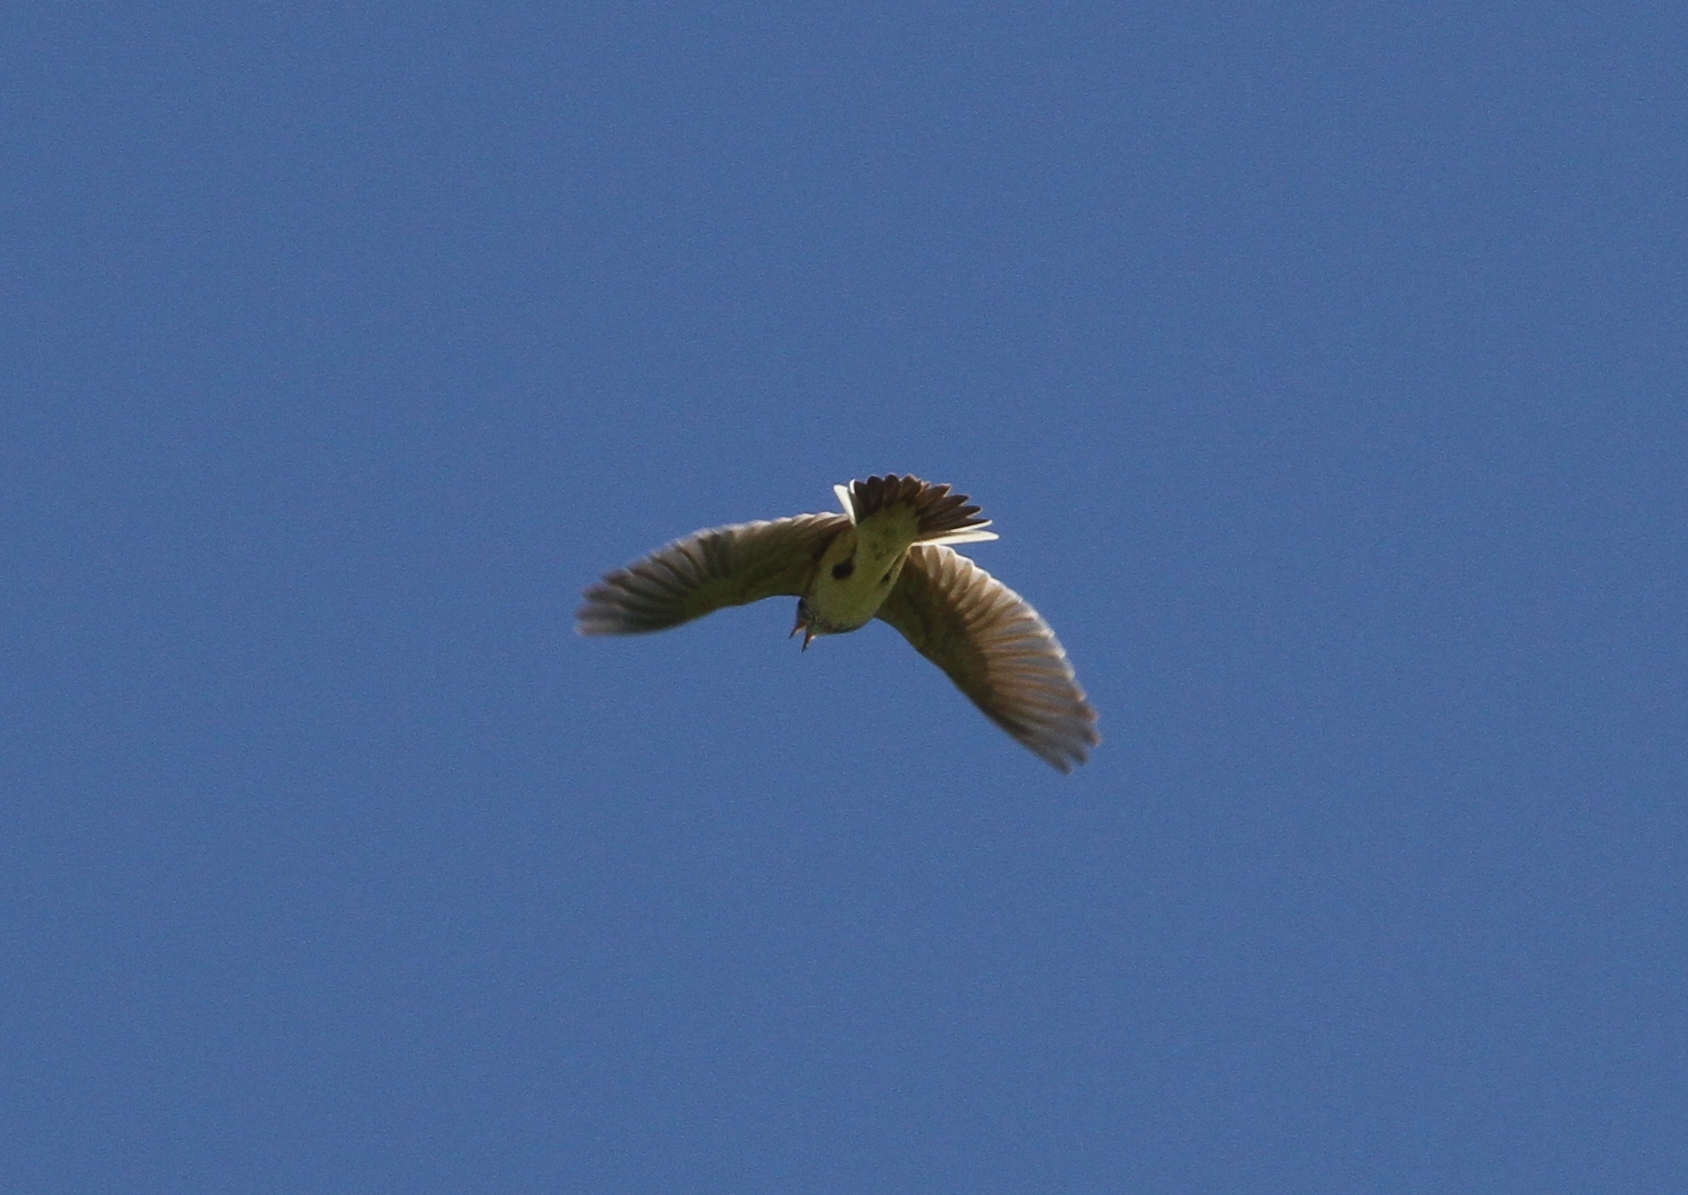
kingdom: Animalia
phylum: Chordata
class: Aves
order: Passeriformes
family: Alaudidae
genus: Alauda
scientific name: Alauda arvensis
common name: Eurasian skylark
